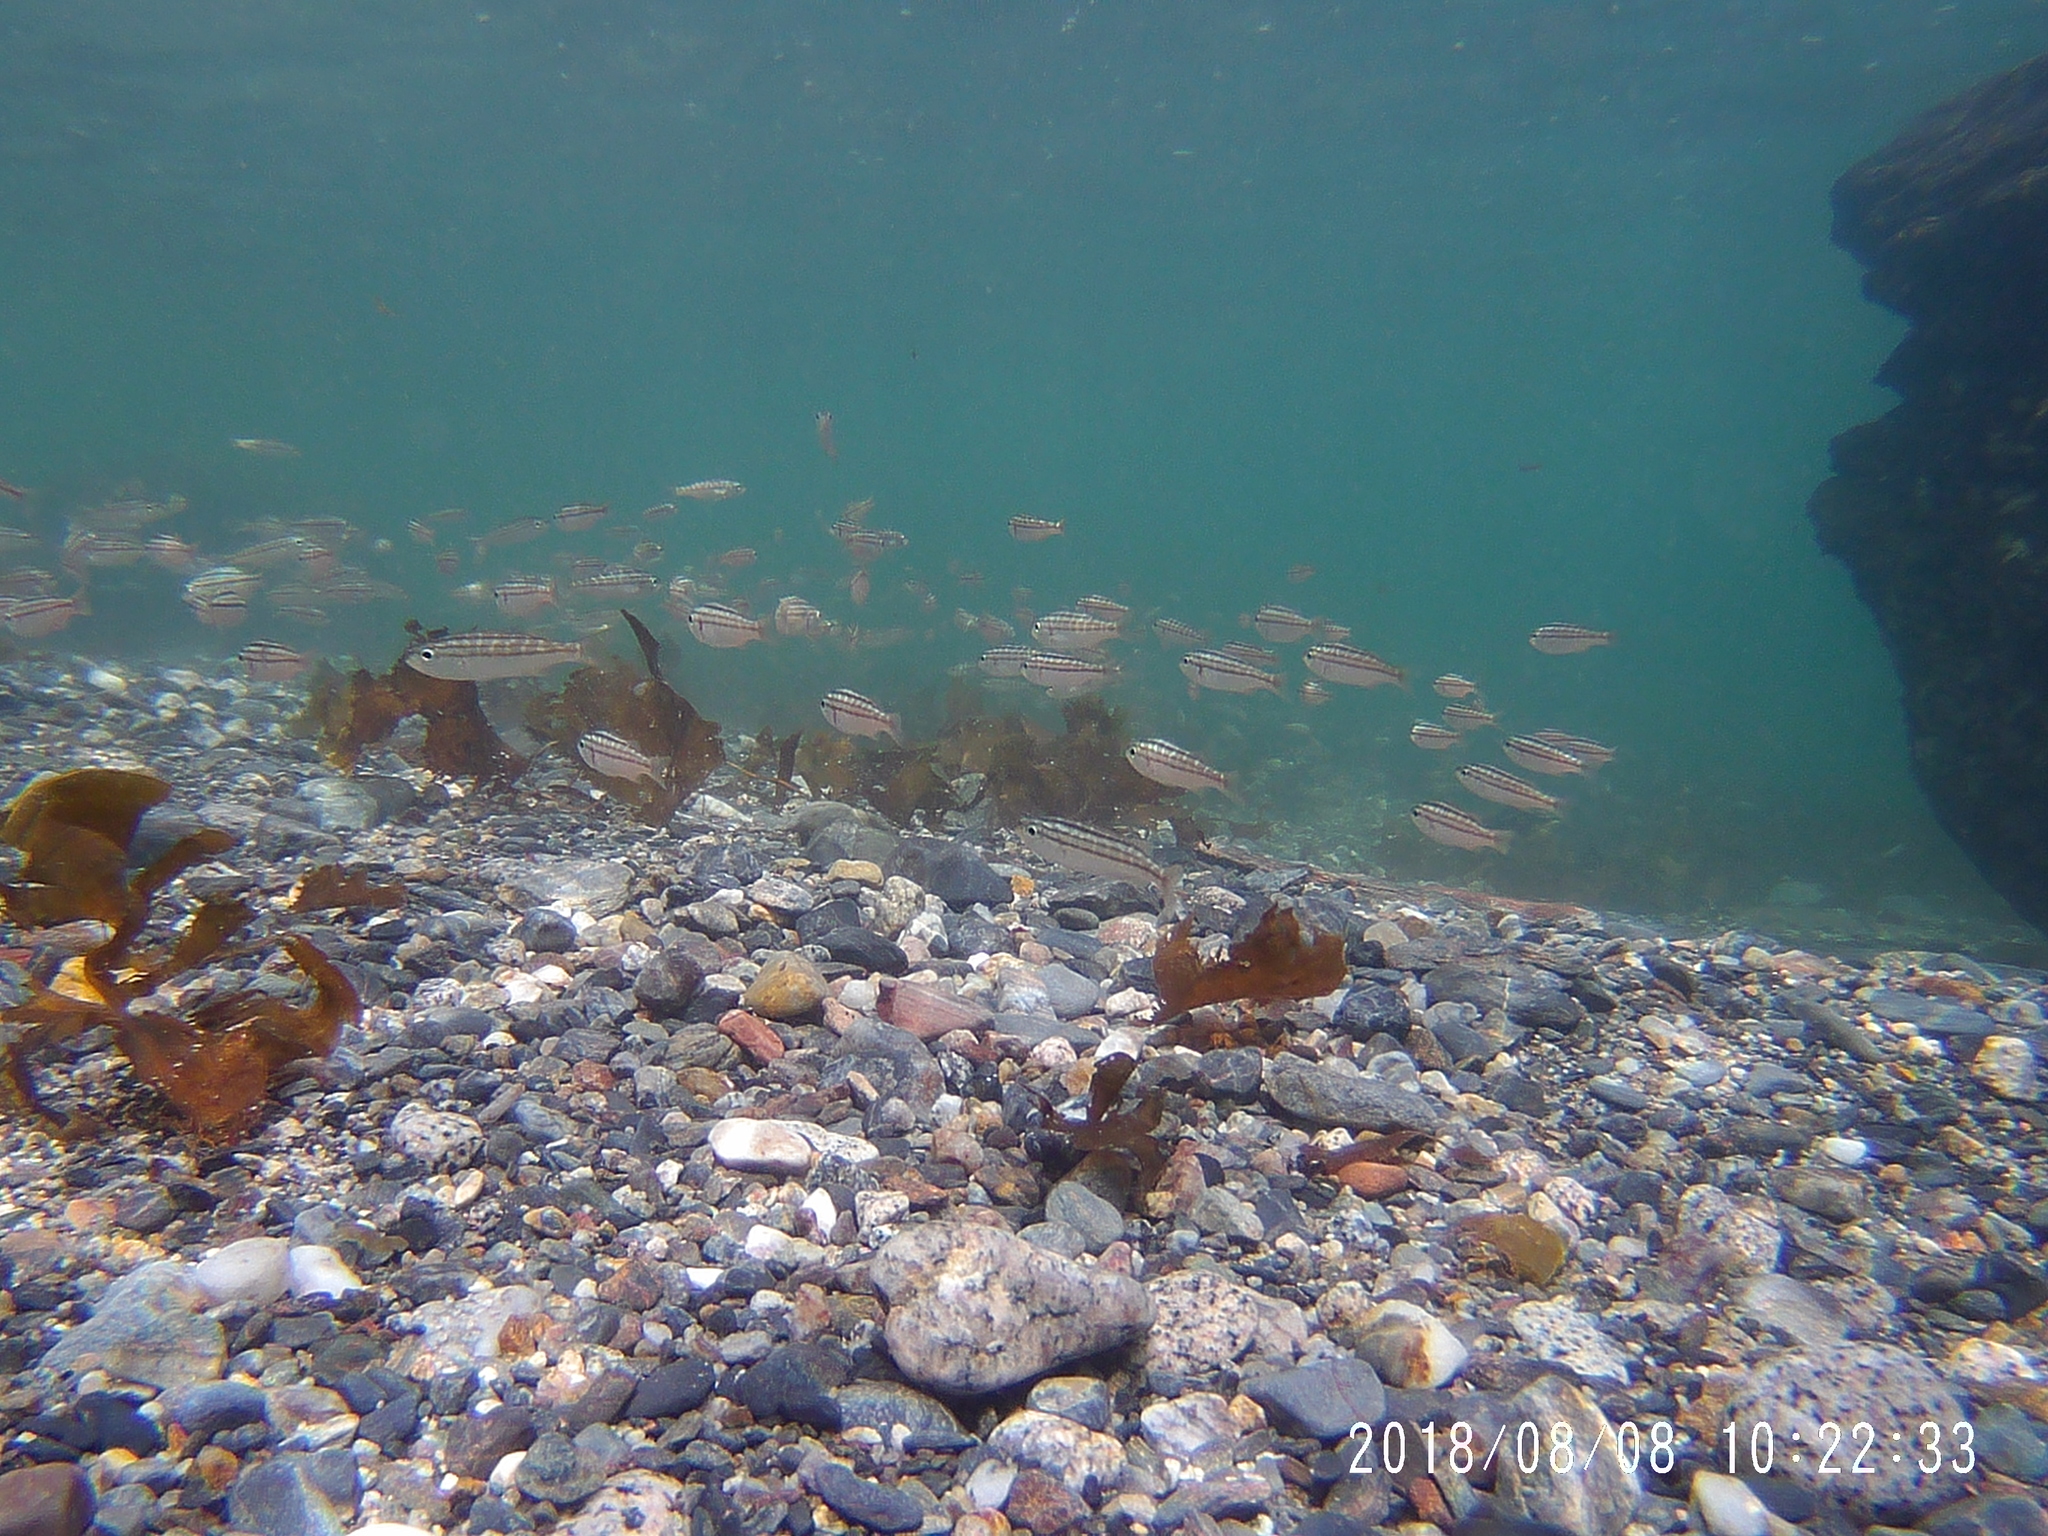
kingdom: Animalia
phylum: Chordata
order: Perciformes
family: Haemulidae
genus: Haemulon
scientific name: Haemulon californiensis
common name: Californian salema
